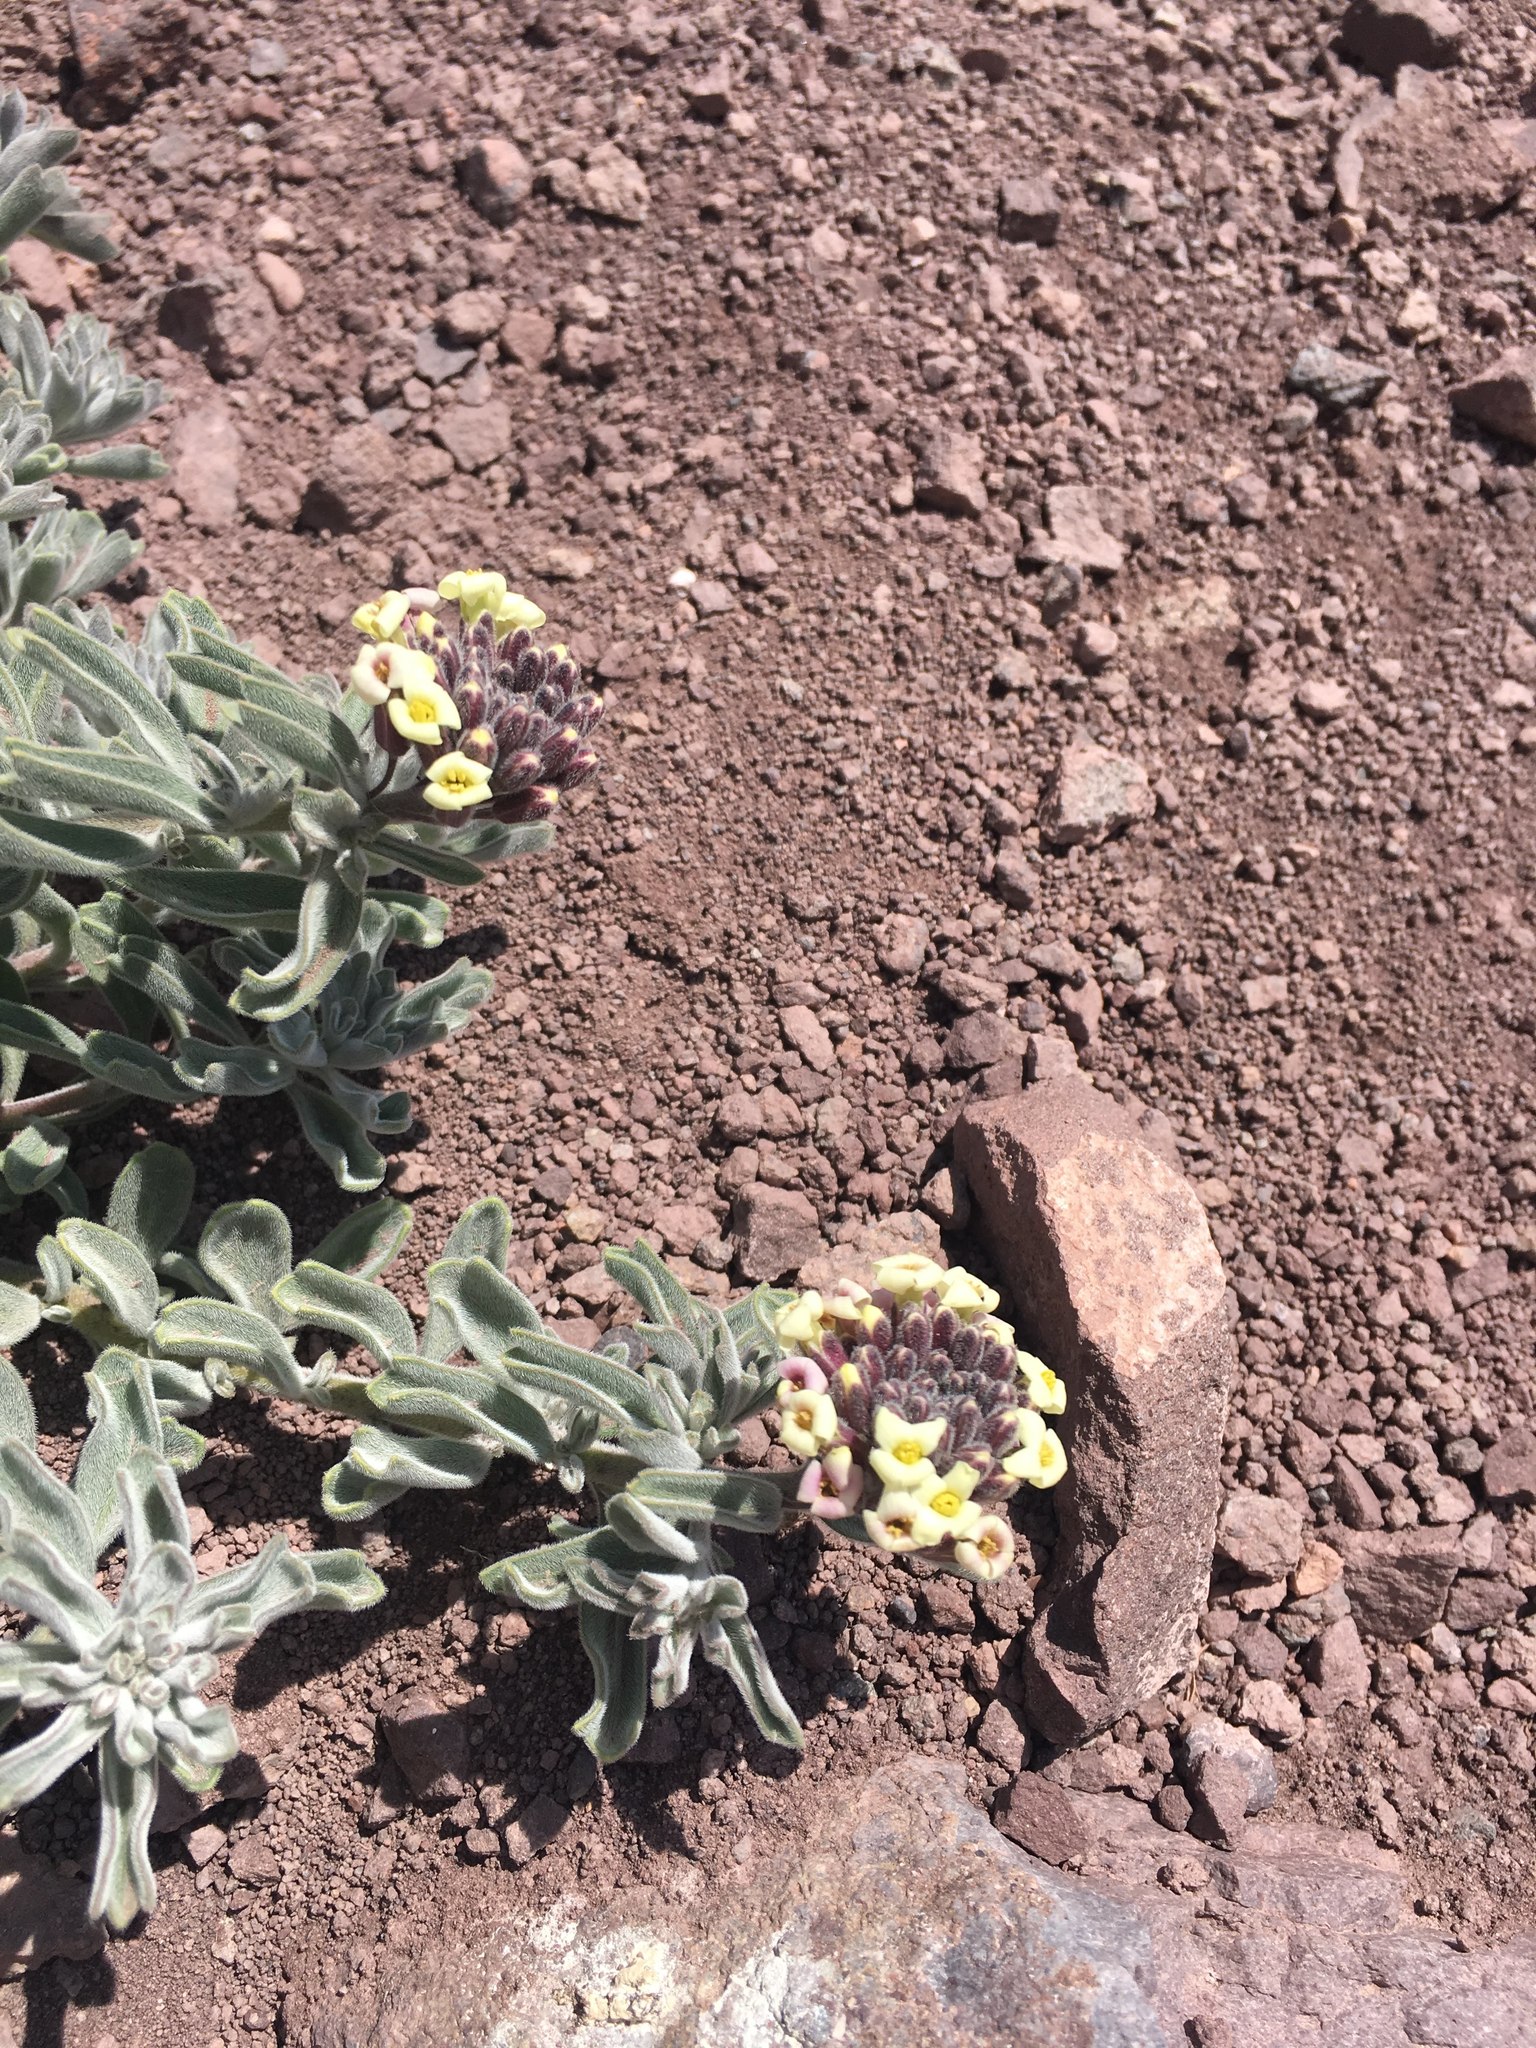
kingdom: Plantae
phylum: Tracheophyta
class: Magnoliopsida
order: Brassicales
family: Brassicaceae
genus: Menonvillea
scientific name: Menonvillea cuneata
